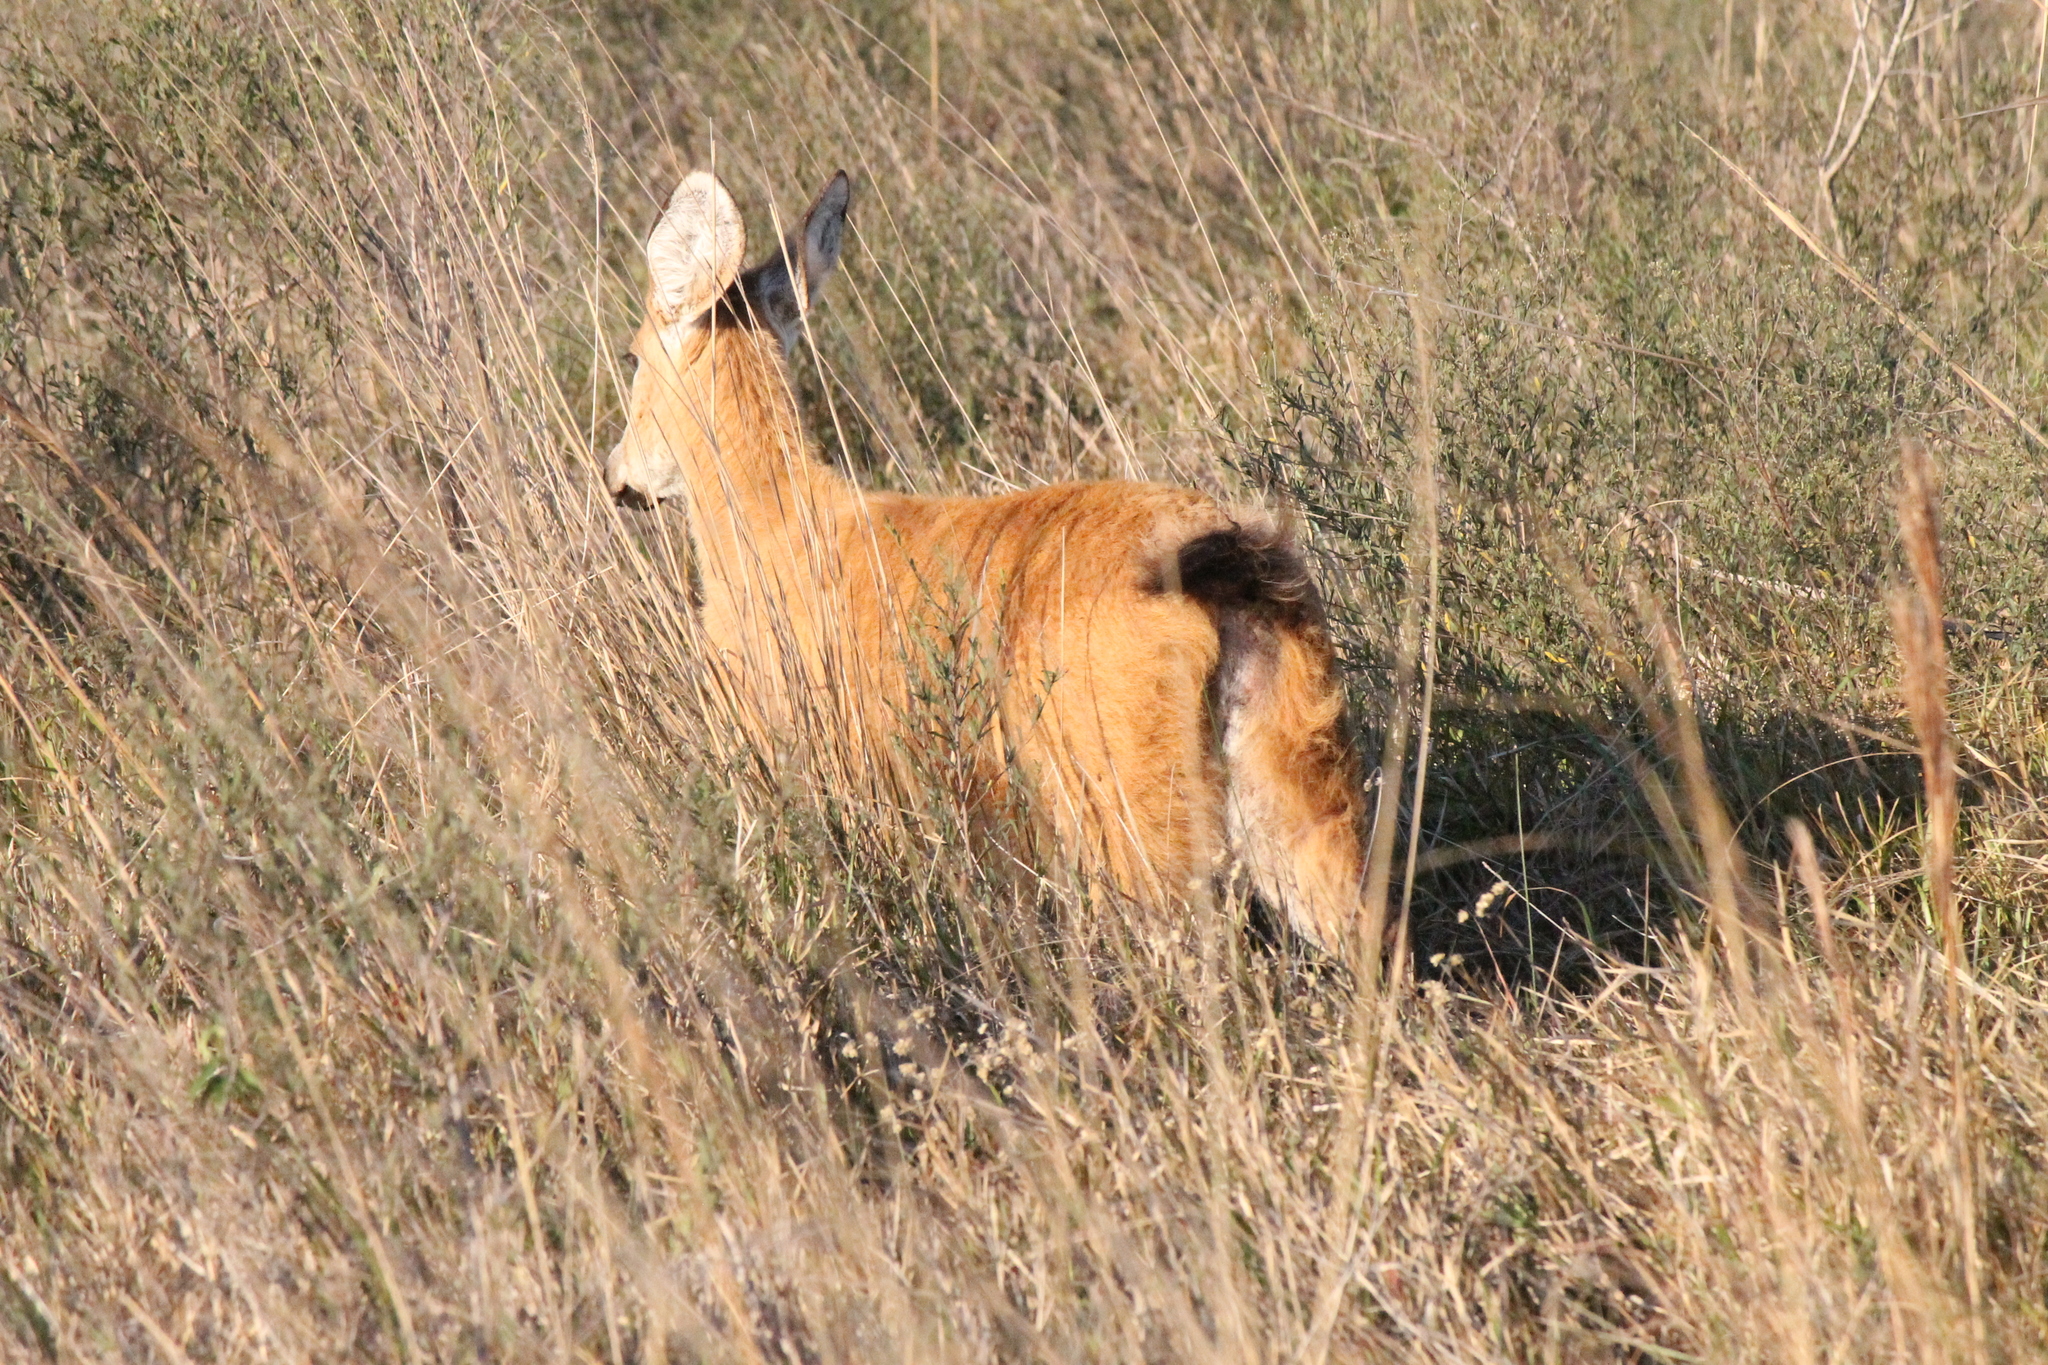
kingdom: Animalia
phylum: Chordata
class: Mammalia
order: Artiodactyla
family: Cervidae
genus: Blastocerus
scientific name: Blastocerus dichotomus
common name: Marsh deer
